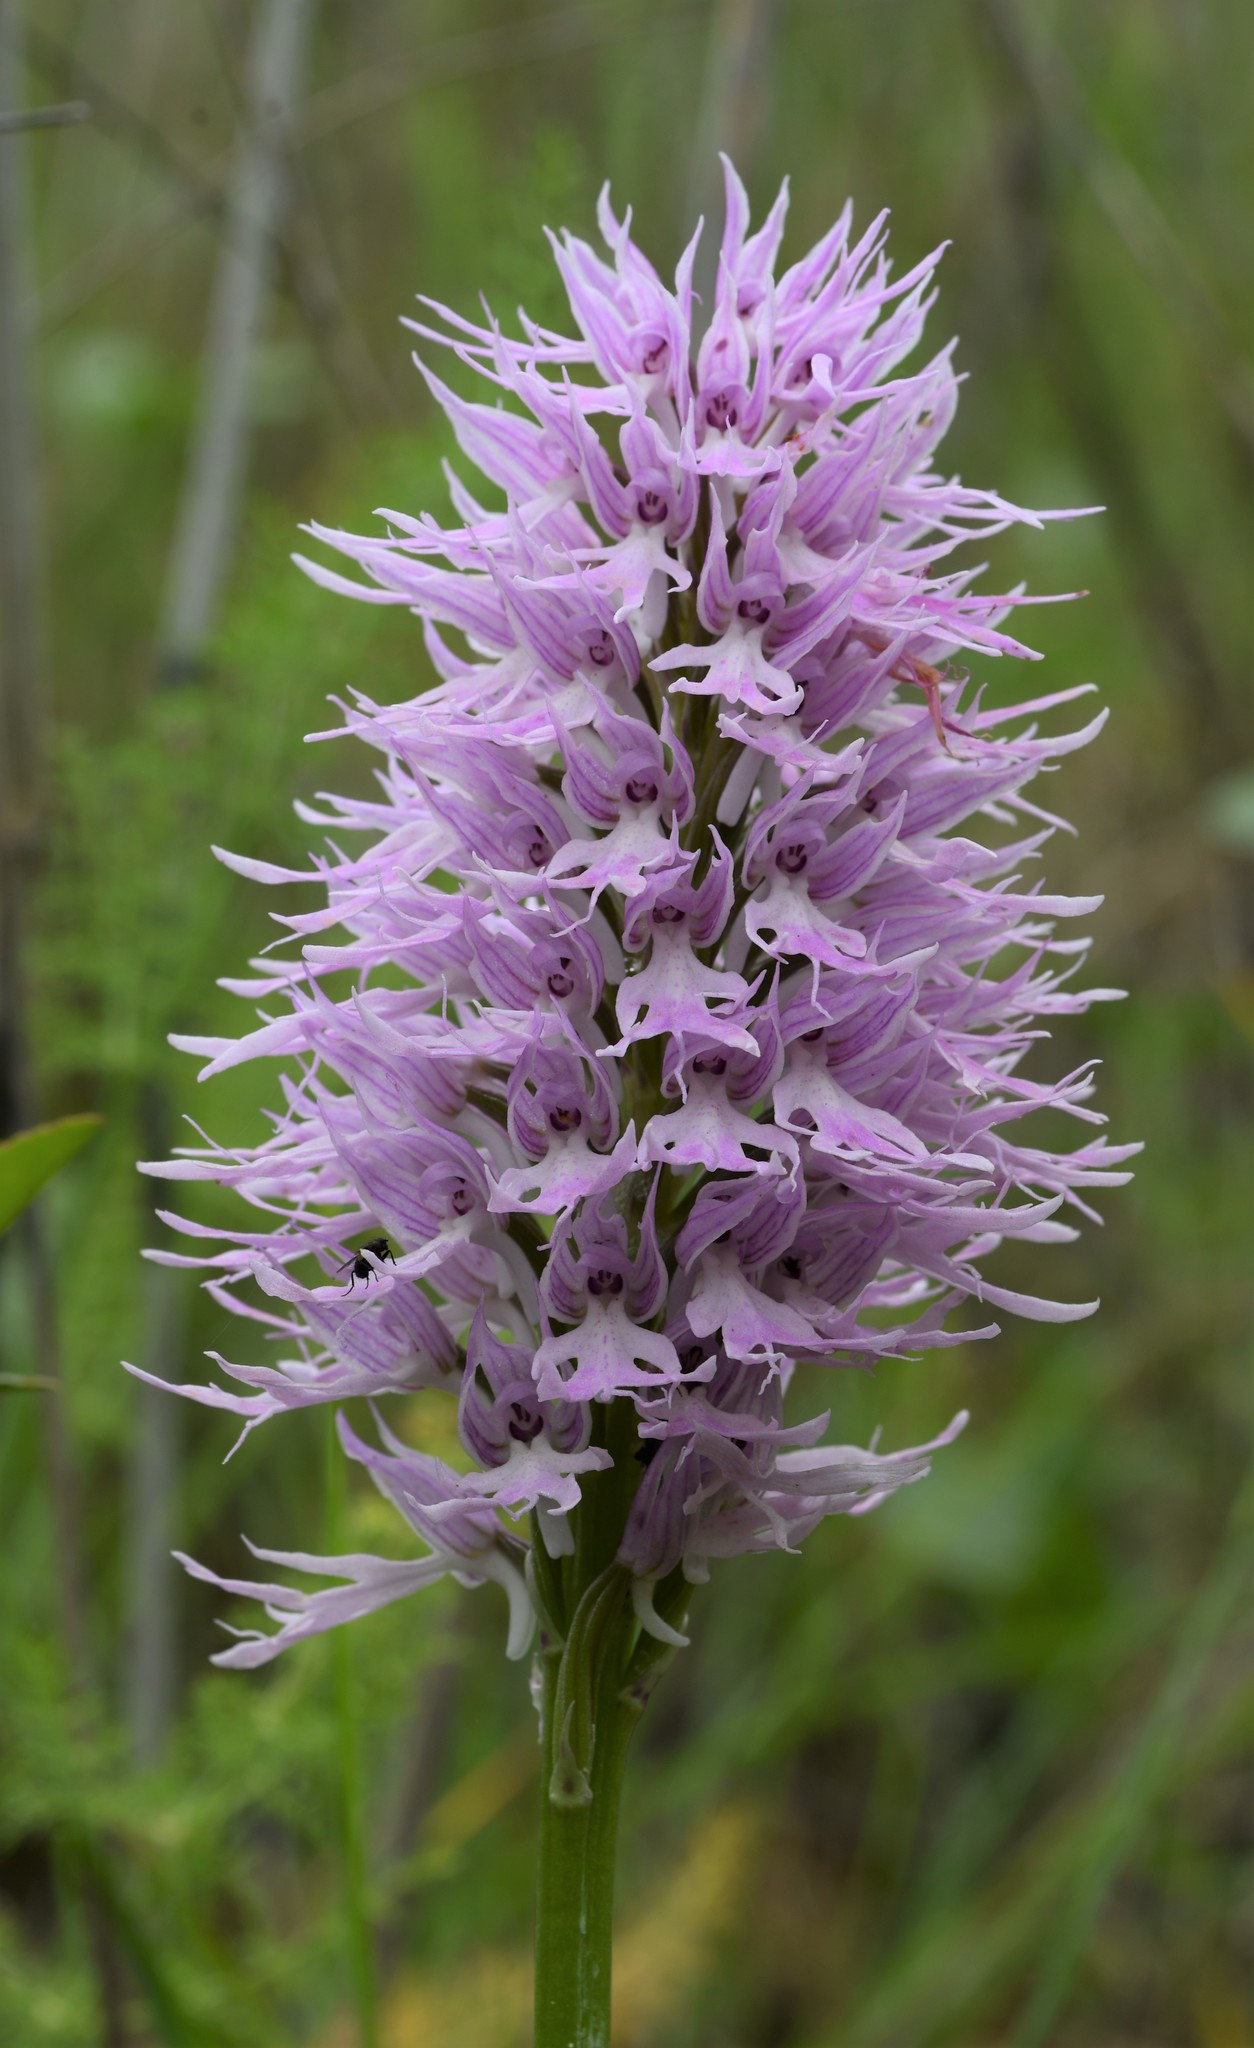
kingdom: Plantae
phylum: Tracheophyta
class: Liliopsida
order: Asparagales
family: Orchidaceae
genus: Orchis
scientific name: Orchis italica
